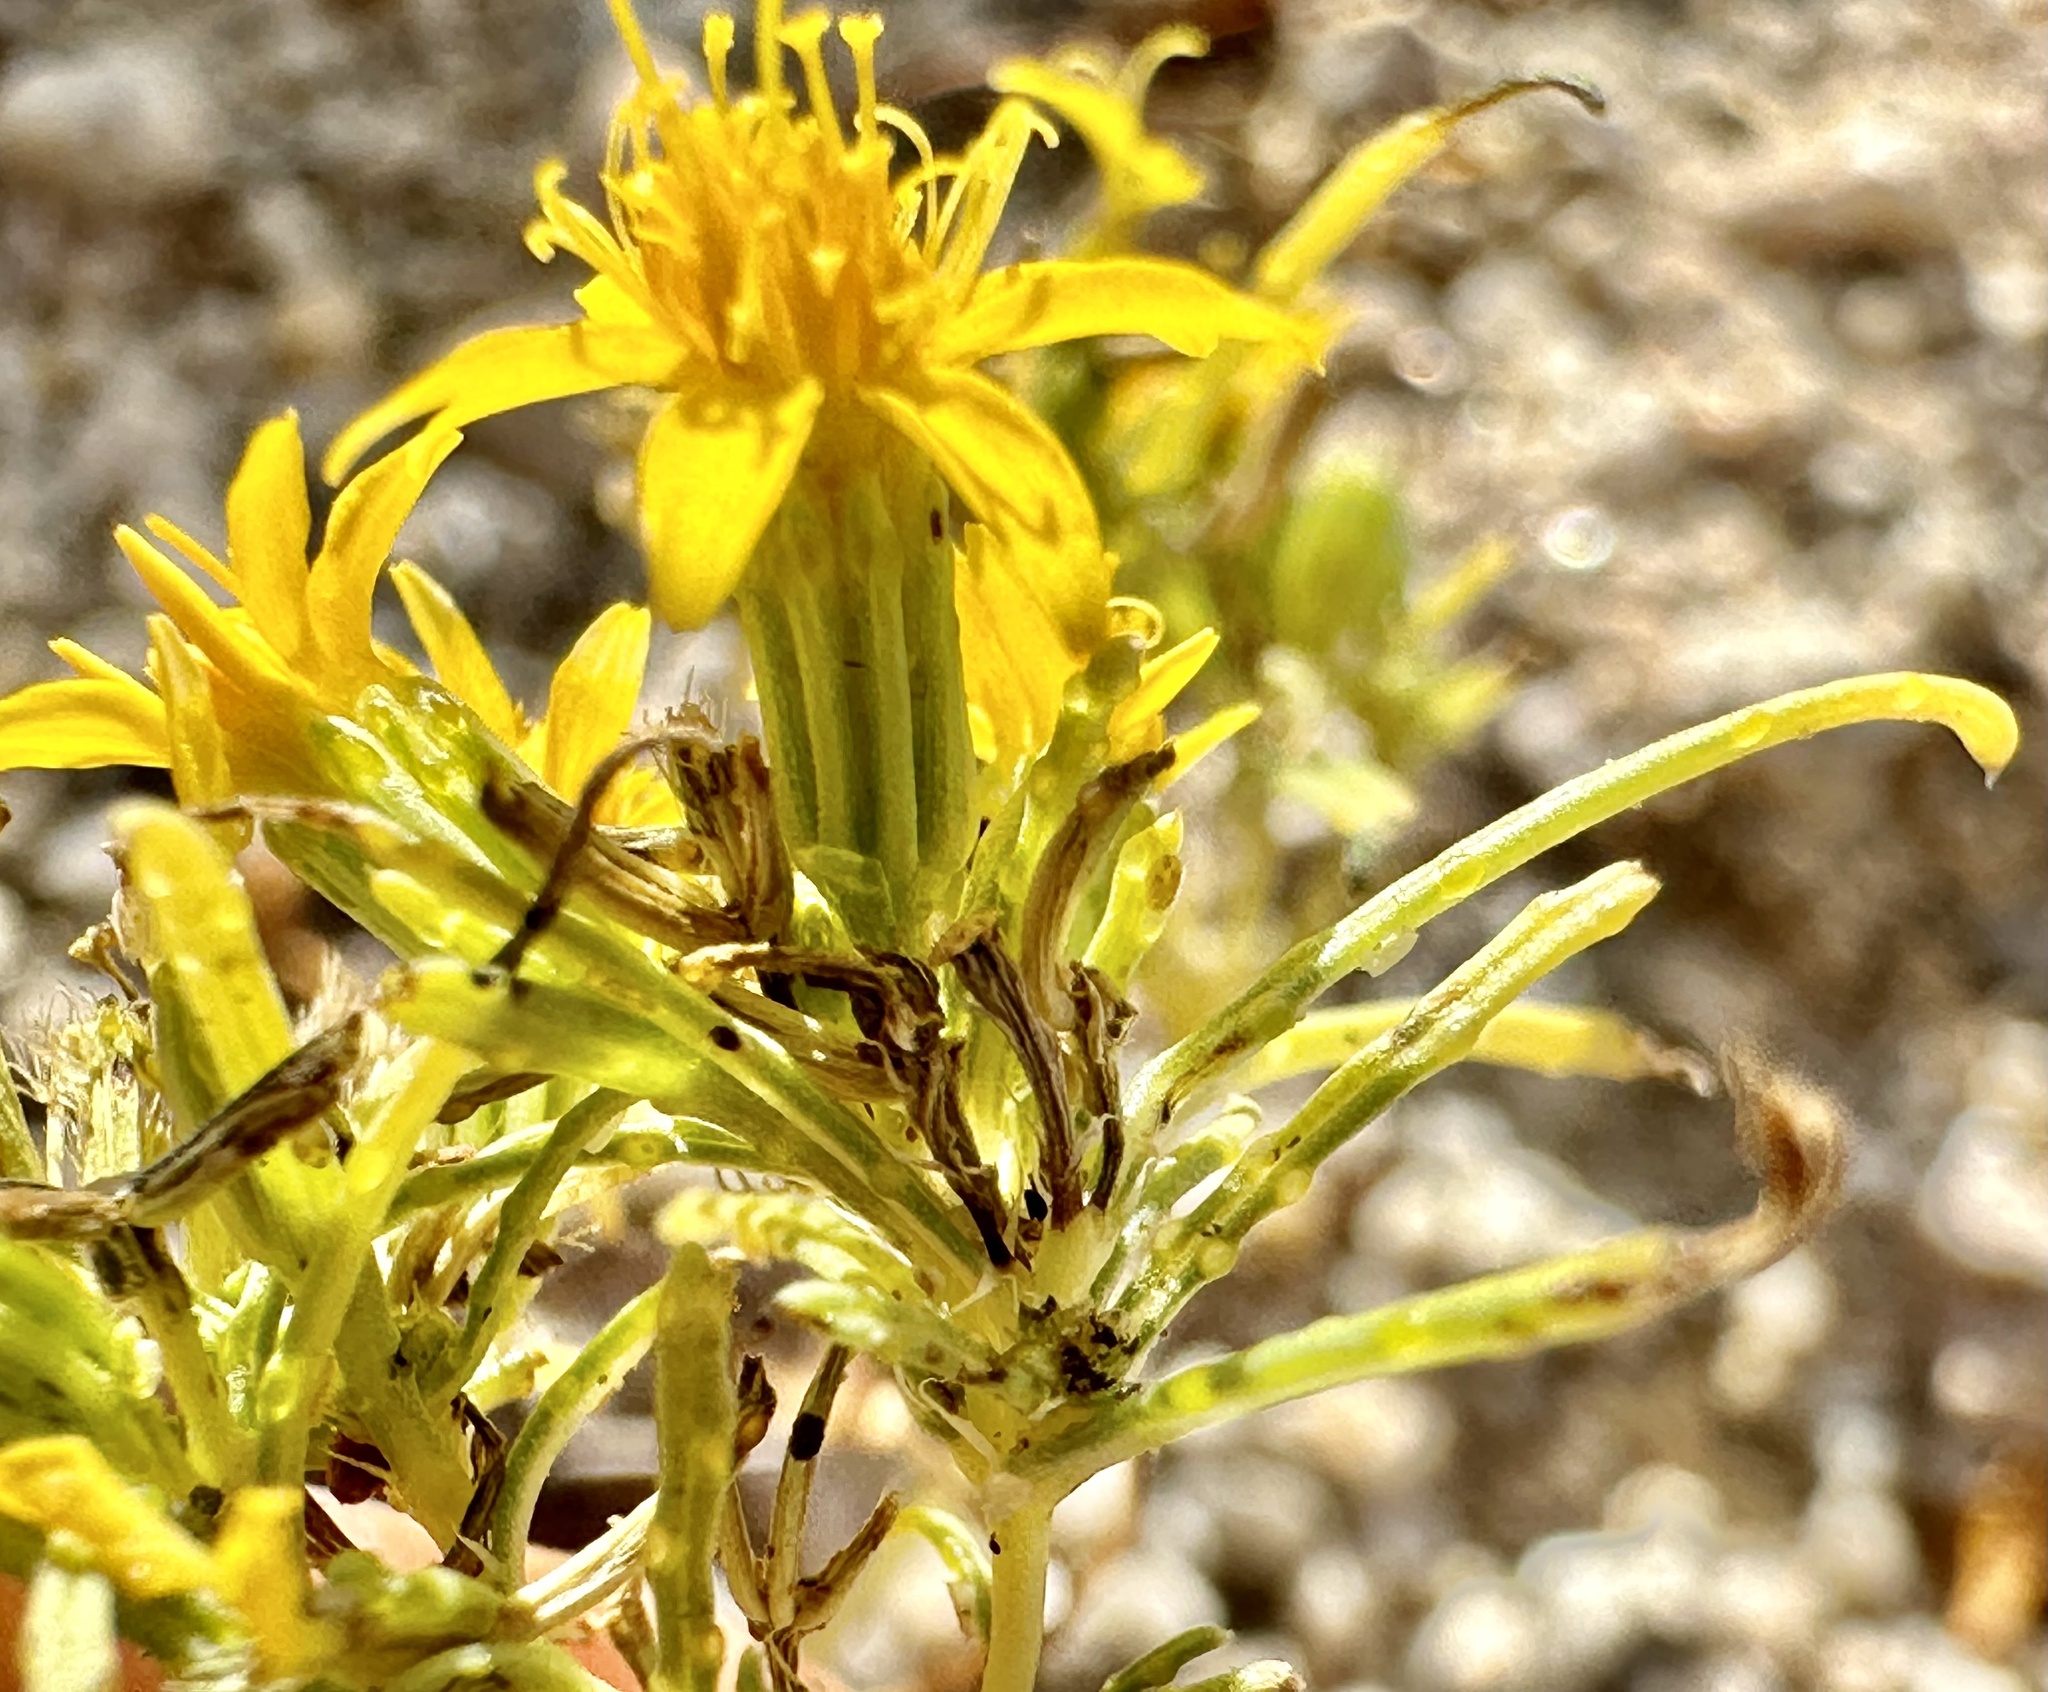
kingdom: Plantae
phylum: Tracheophyta
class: Magnoliopsida
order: Asterales
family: Asteraceae
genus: Pectis
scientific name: Pectis papposa
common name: Many-bristle chinchweed
